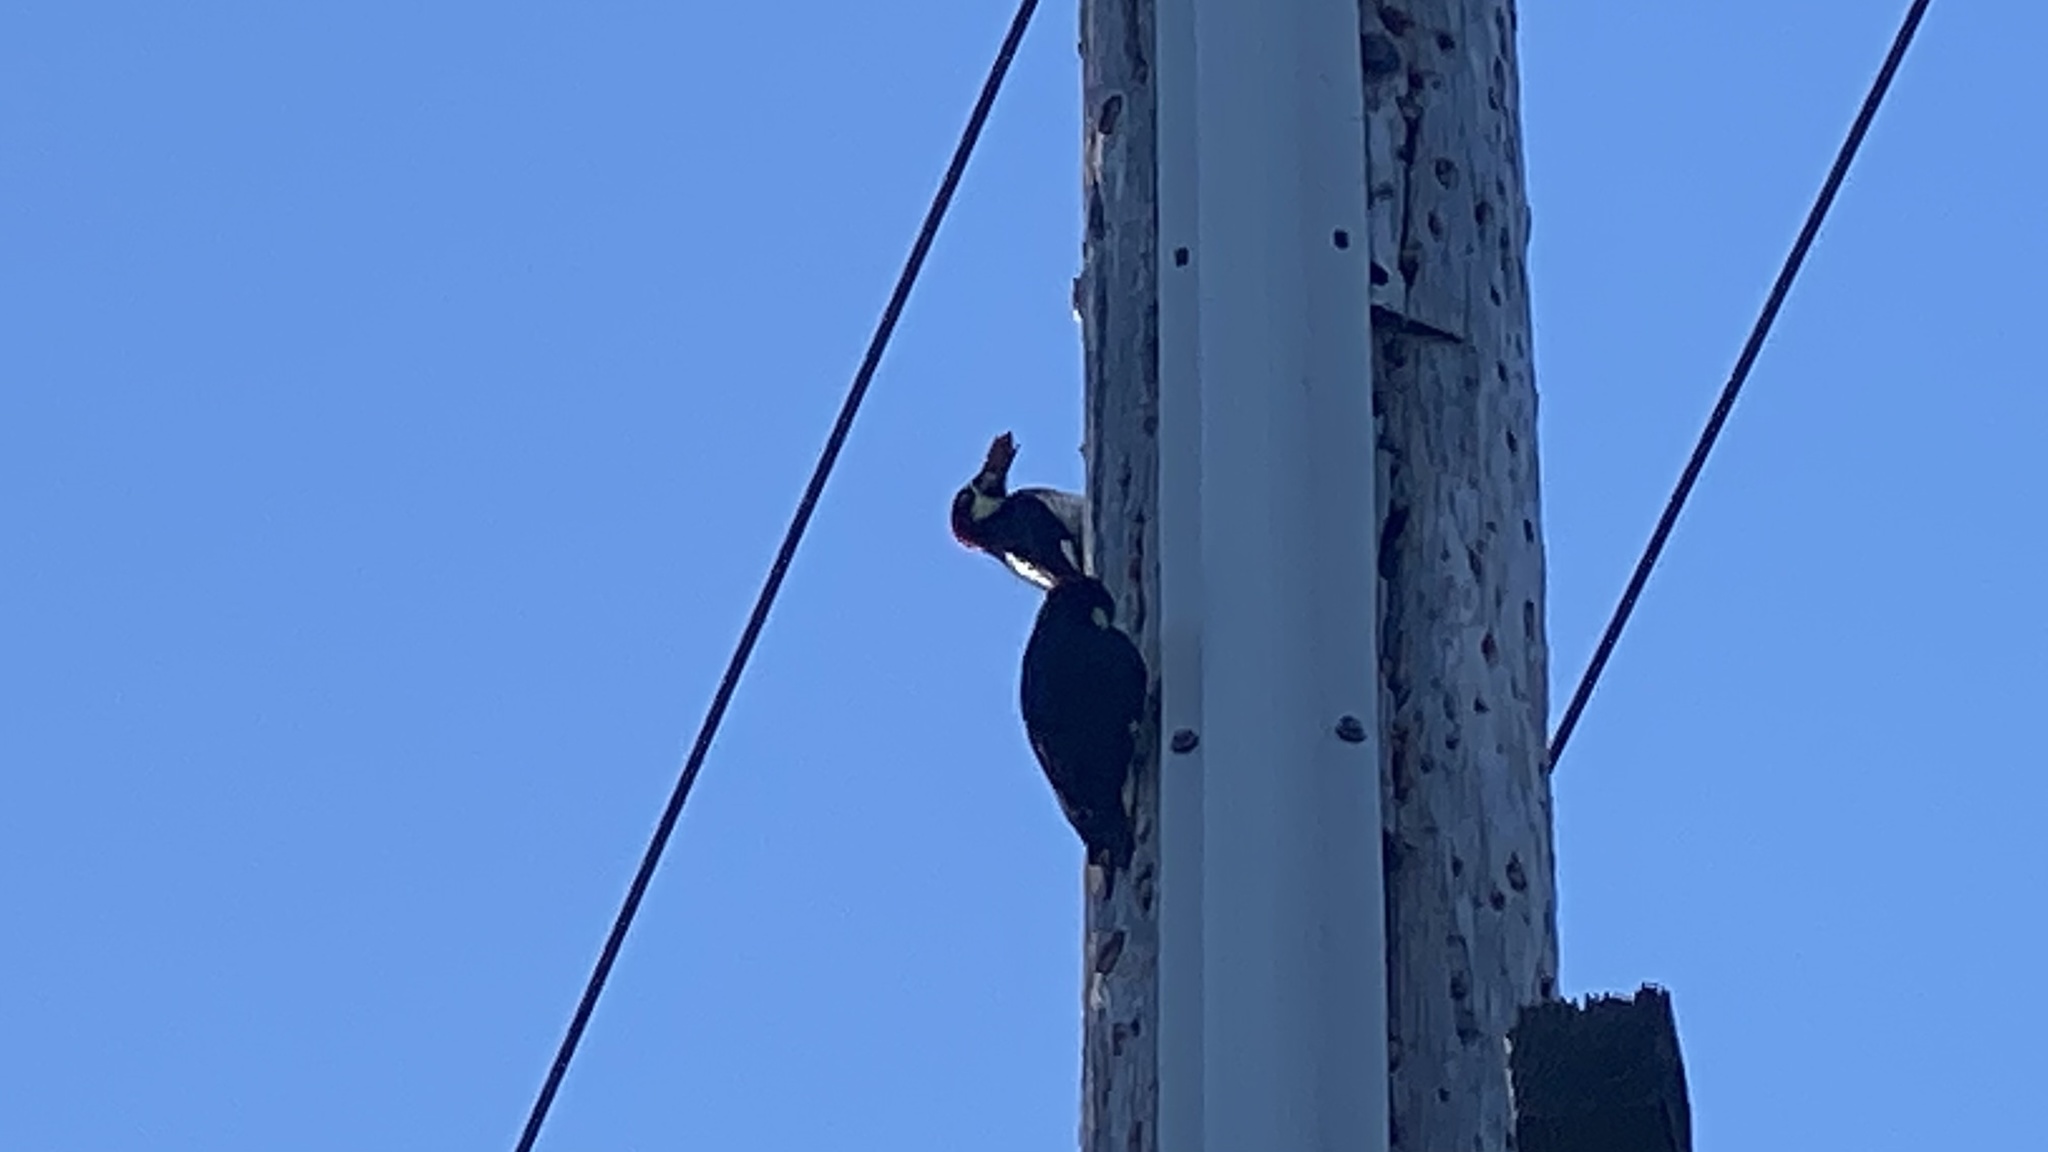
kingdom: Animalia
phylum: Chordata
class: Aves
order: Piciformes
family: Picidae
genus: Melanerpes
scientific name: Melanerpes formicivorus
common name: Acorn woodpecker
